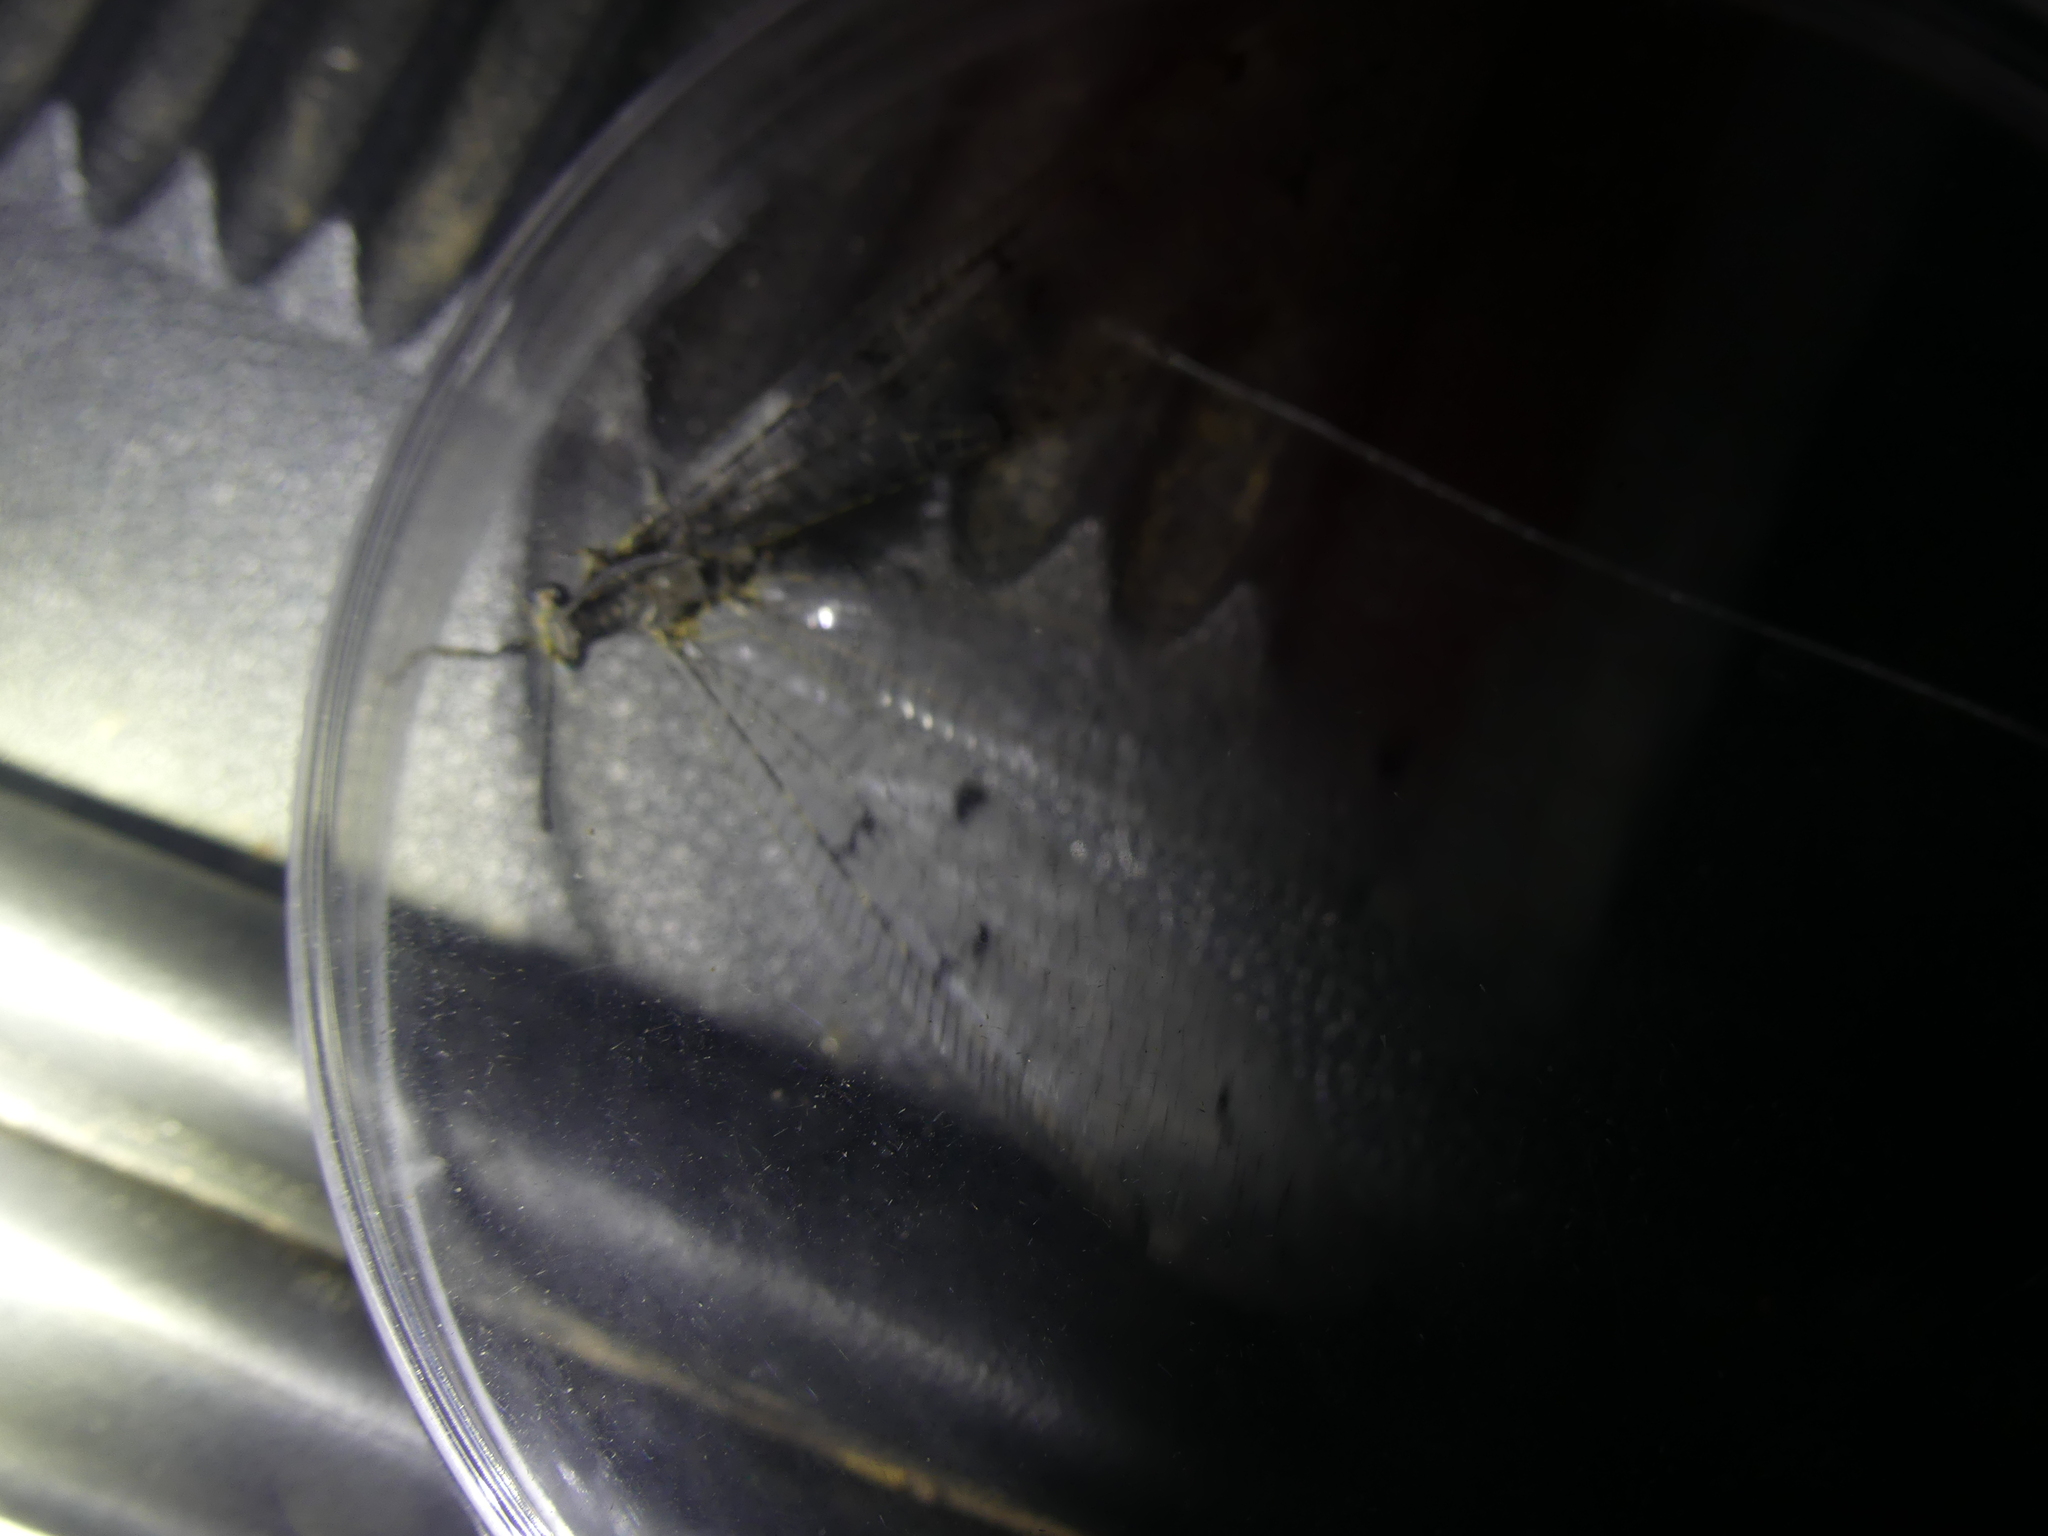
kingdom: Animalia
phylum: Arthropoda
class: Insecta
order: Neuroptera
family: Myrmeleontidae
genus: Distoleon
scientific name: Distoleon tetragrammicus
